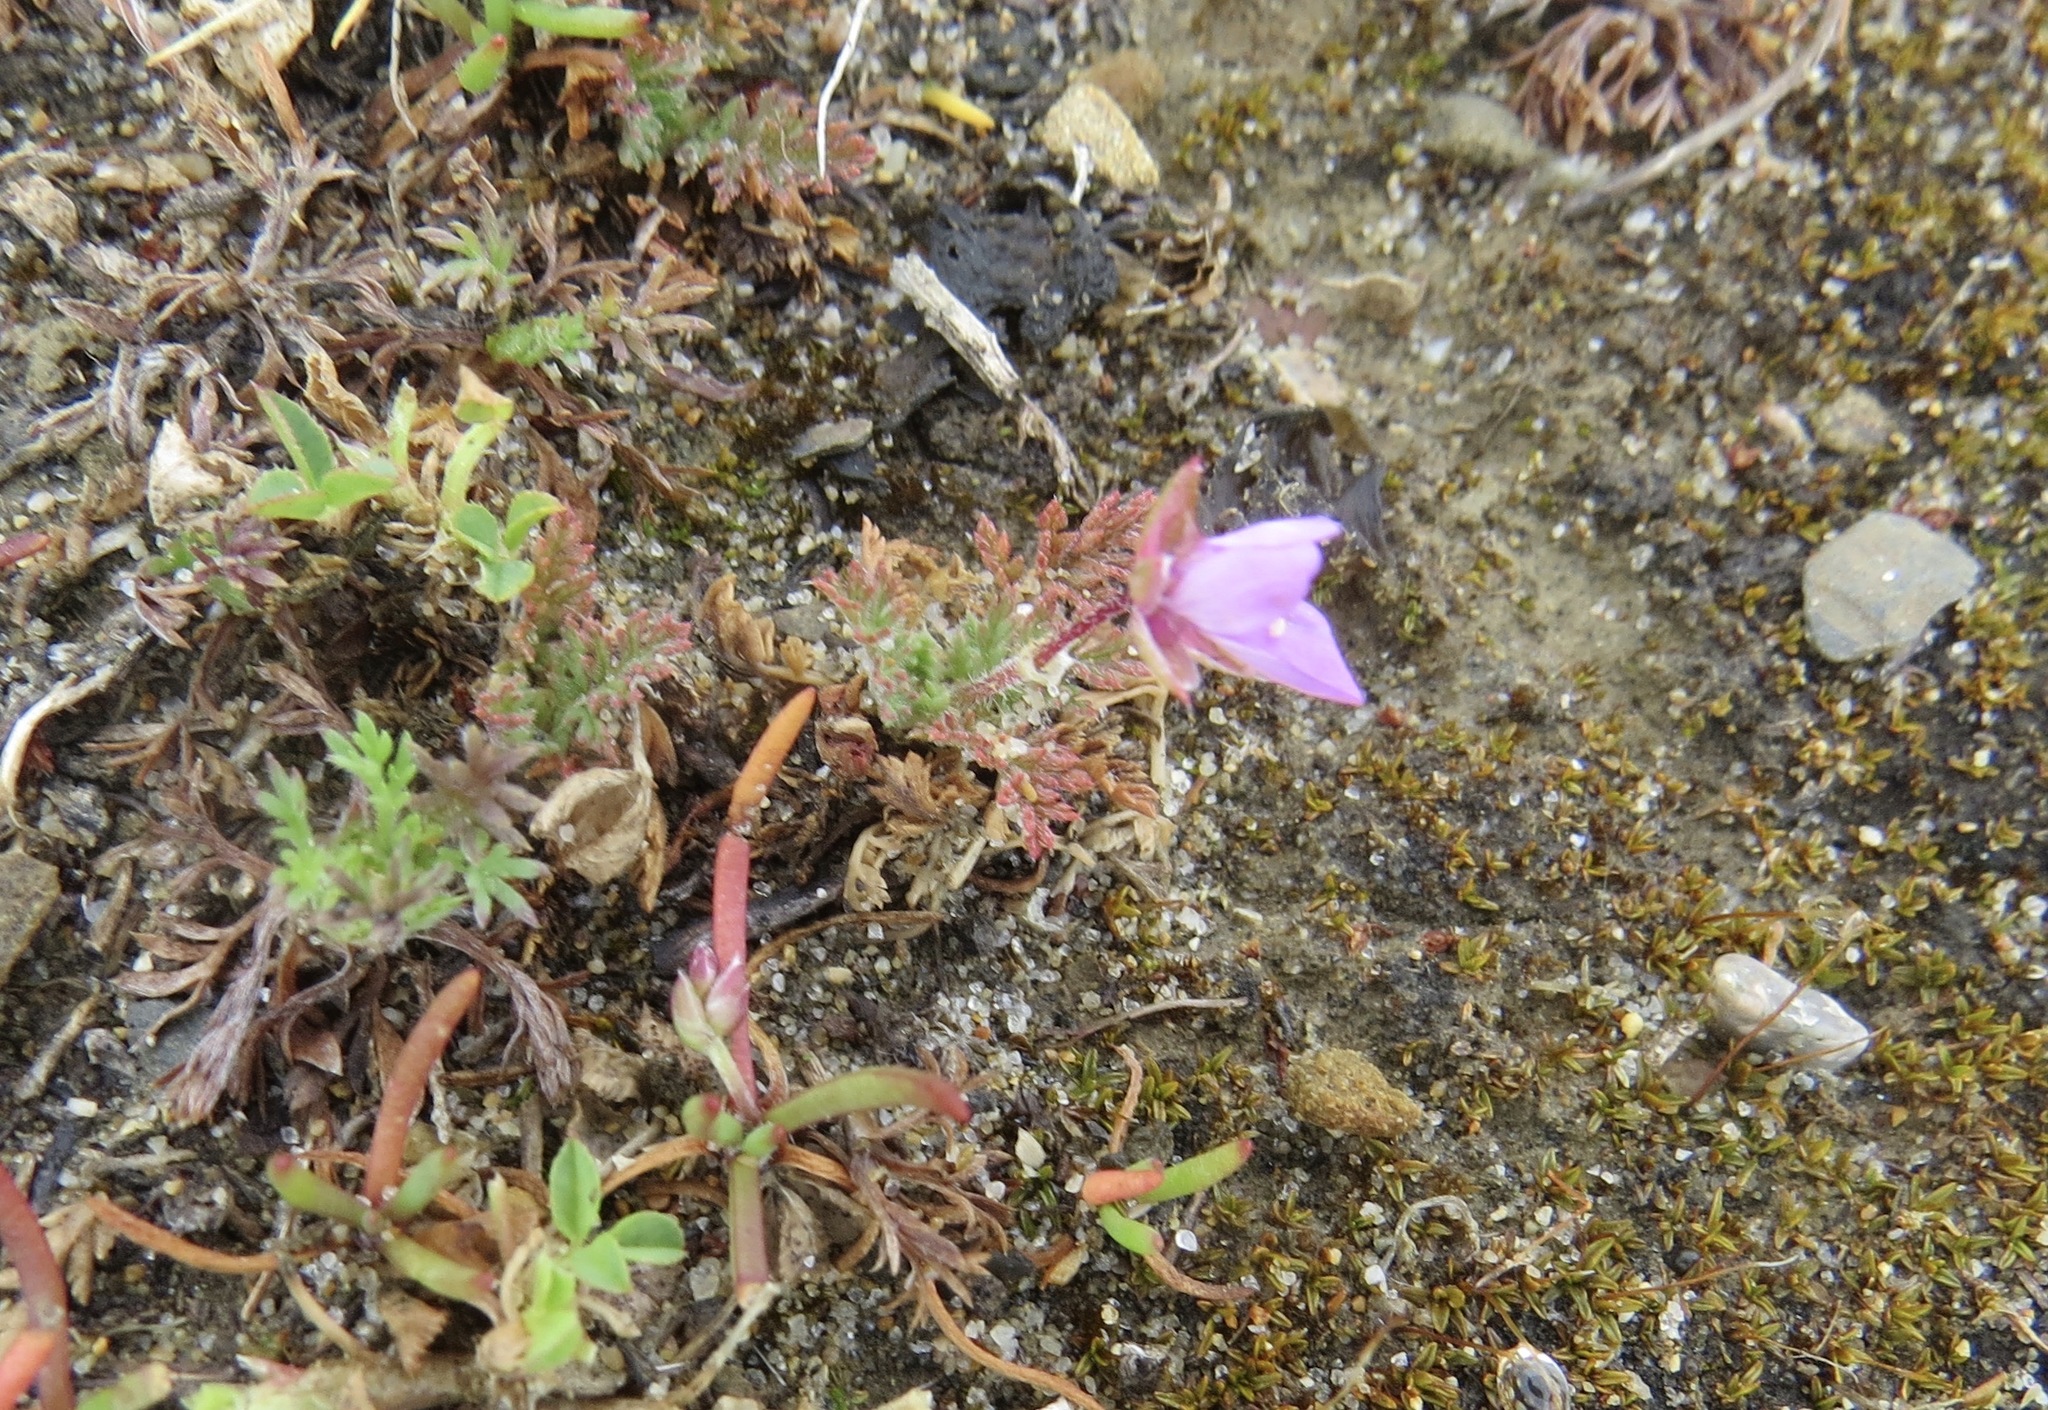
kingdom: Plantae
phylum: Tracheophyta
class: Magnoliopsida
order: Geraniales
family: Geraniaceae
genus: Erodium
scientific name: Erodium cicutarium
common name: Common stork's-bill
